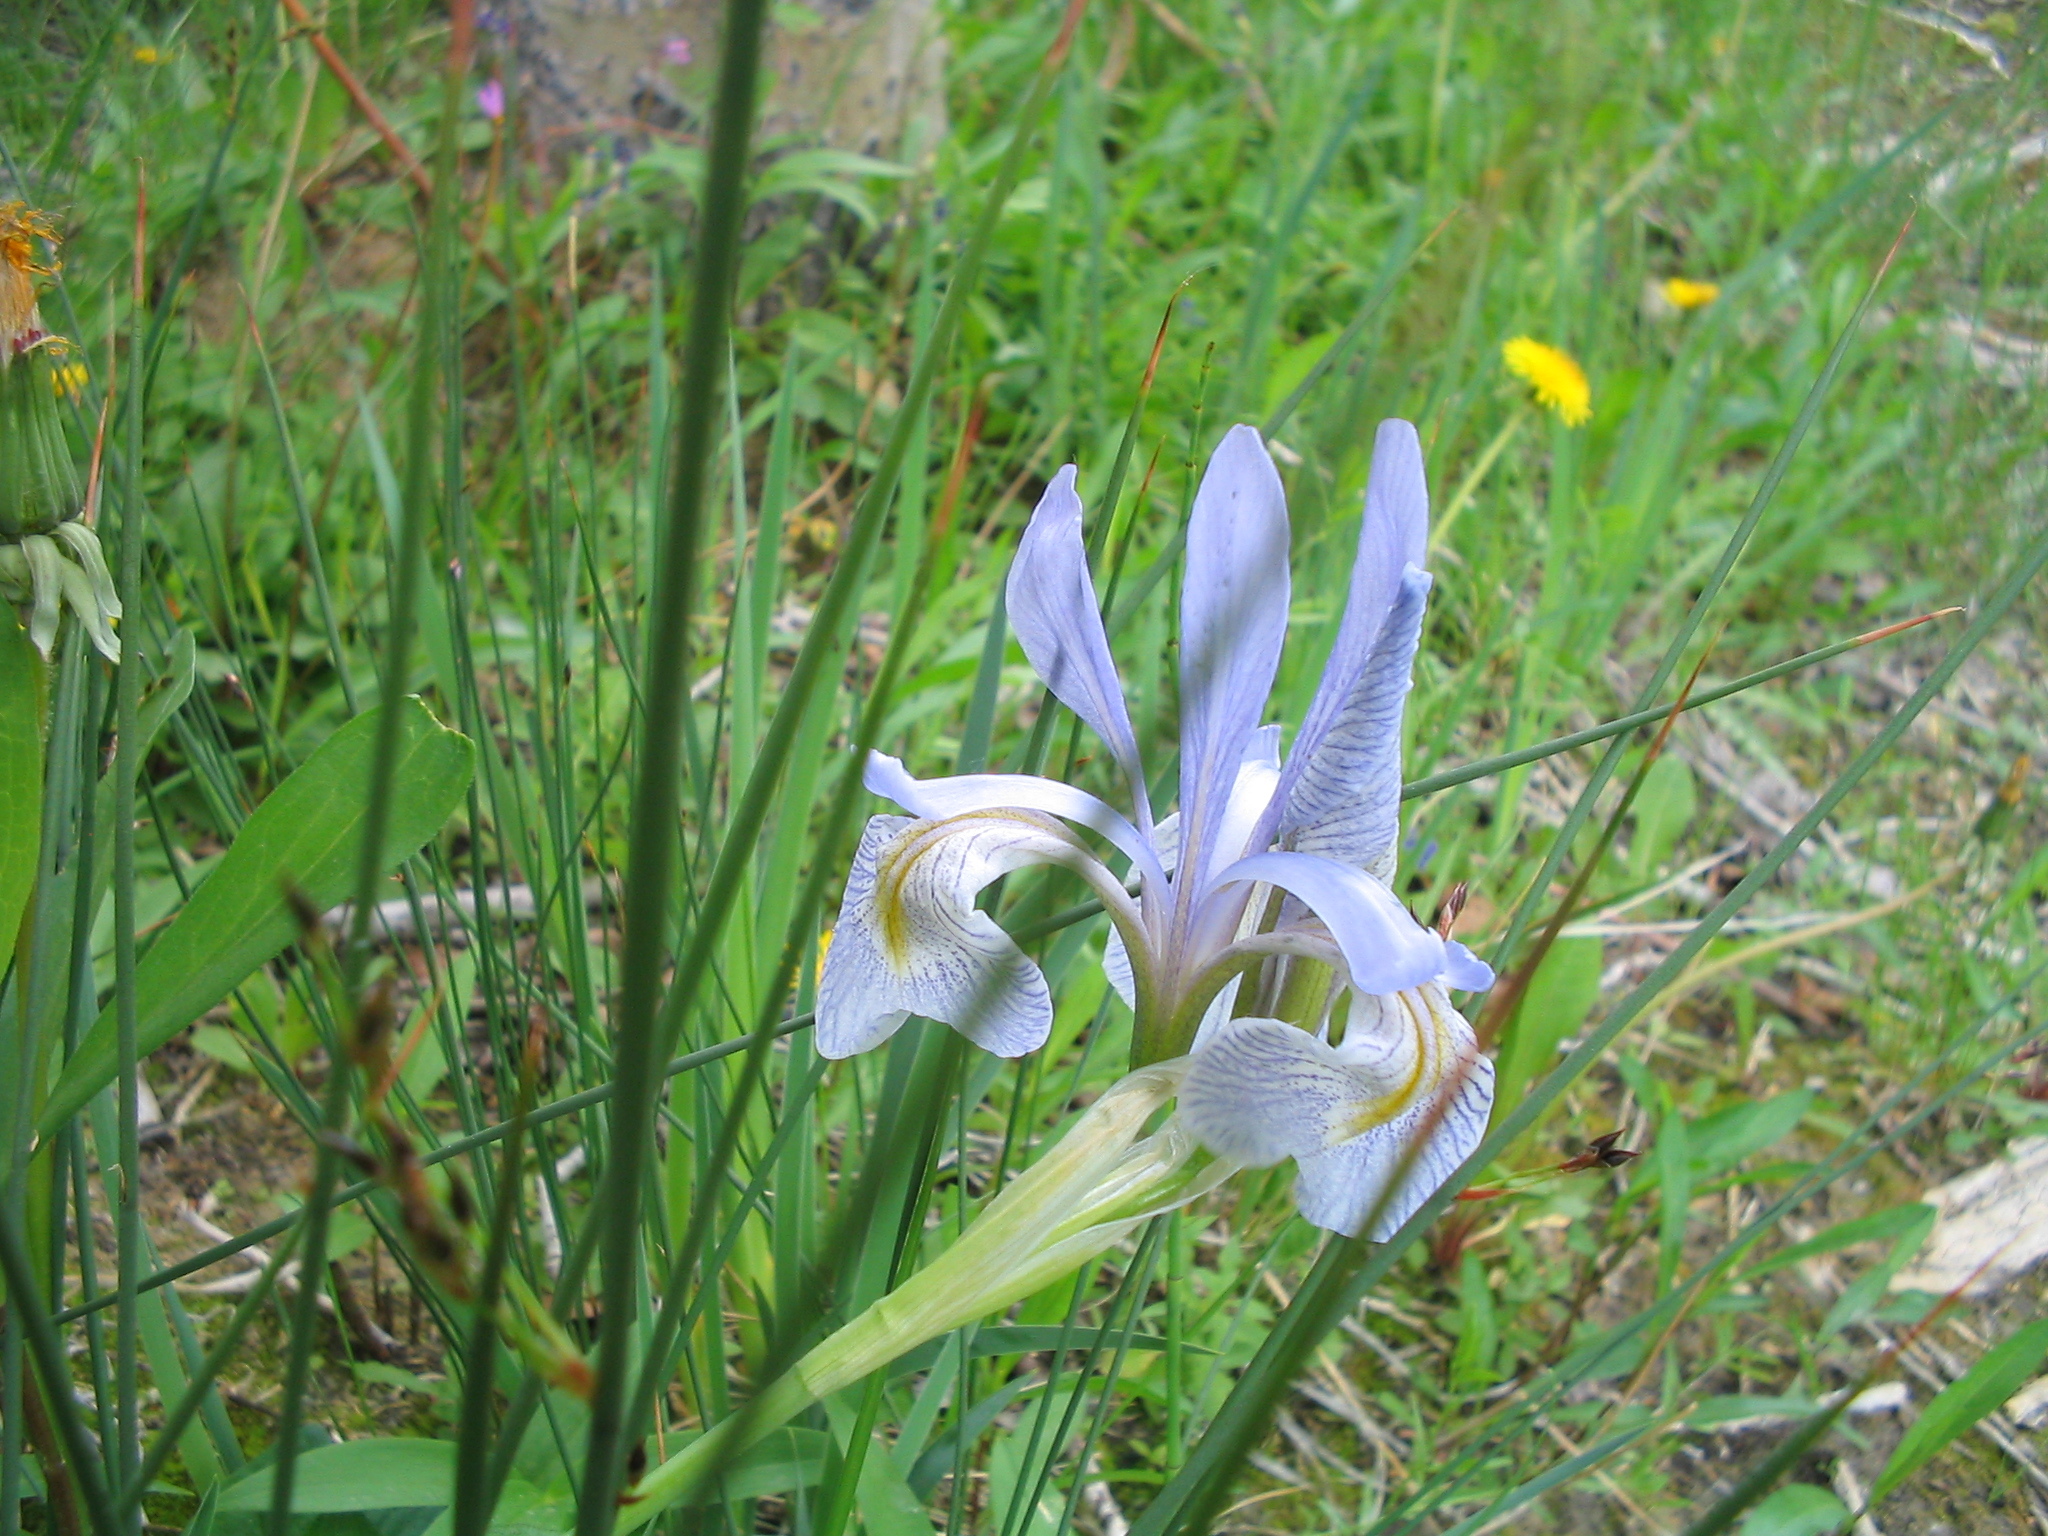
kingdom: Plantae
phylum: Tracheophyta
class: Liliopsida
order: Asparagales
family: Iridaceae
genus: Iris
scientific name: Iris missouriensis
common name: Rocky mountain iris
